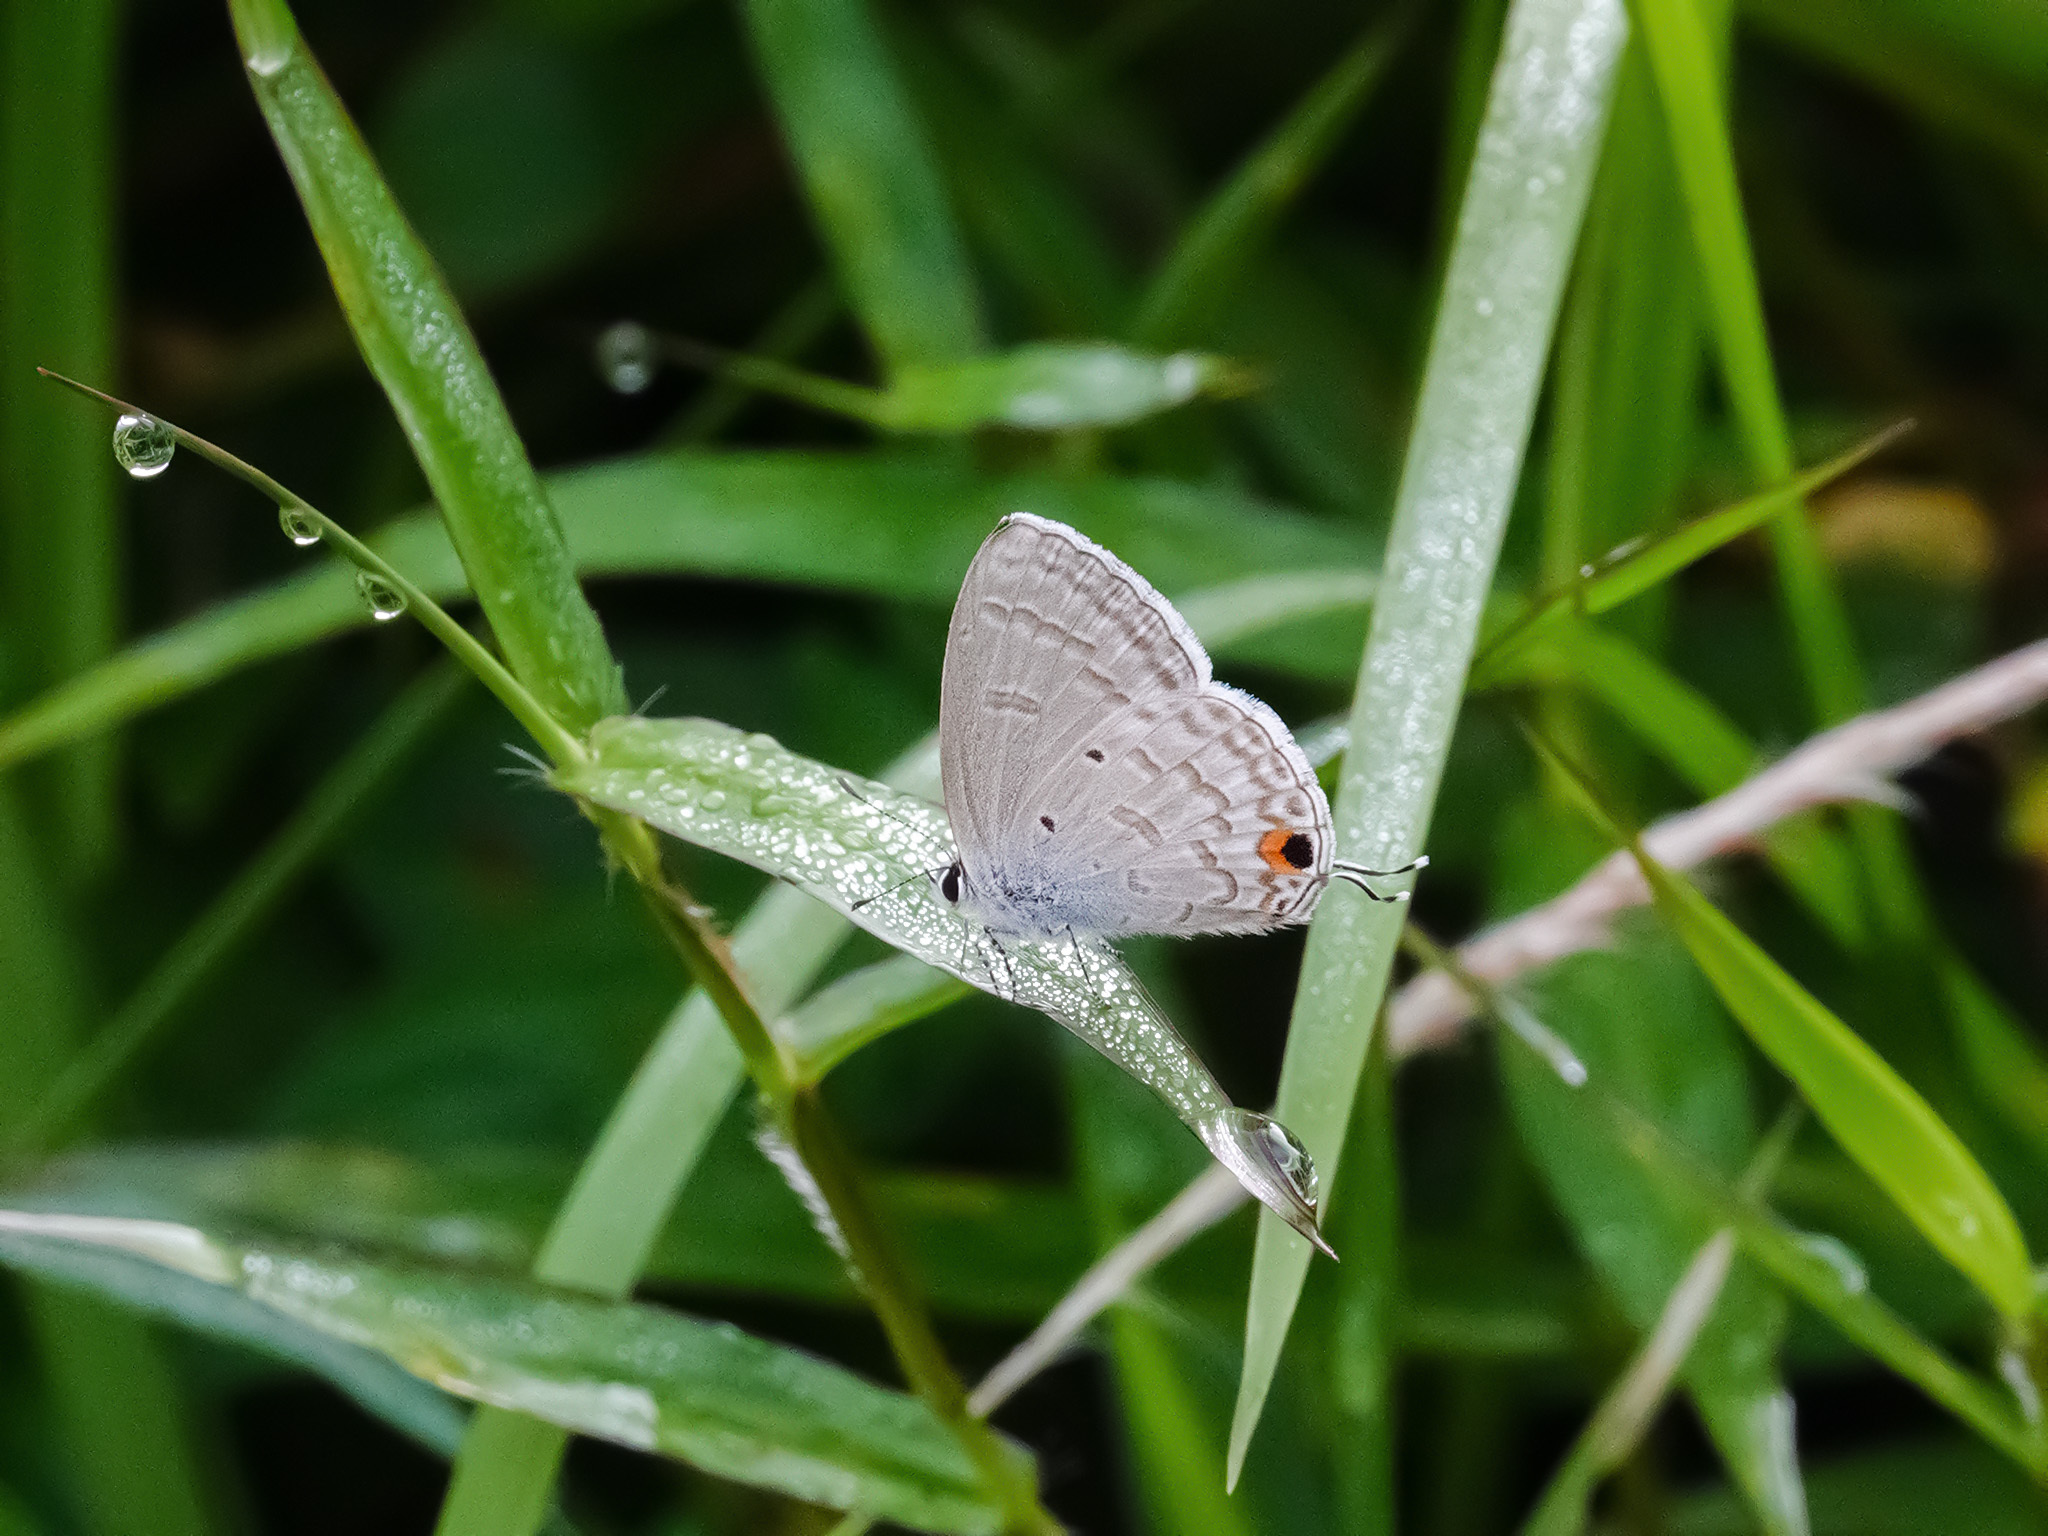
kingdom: Animalia
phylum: Arthropoda
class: Insecta
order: Lepidoptera
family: Lycaenidae
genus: Catochrysops
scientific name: Catochrysops panormus
